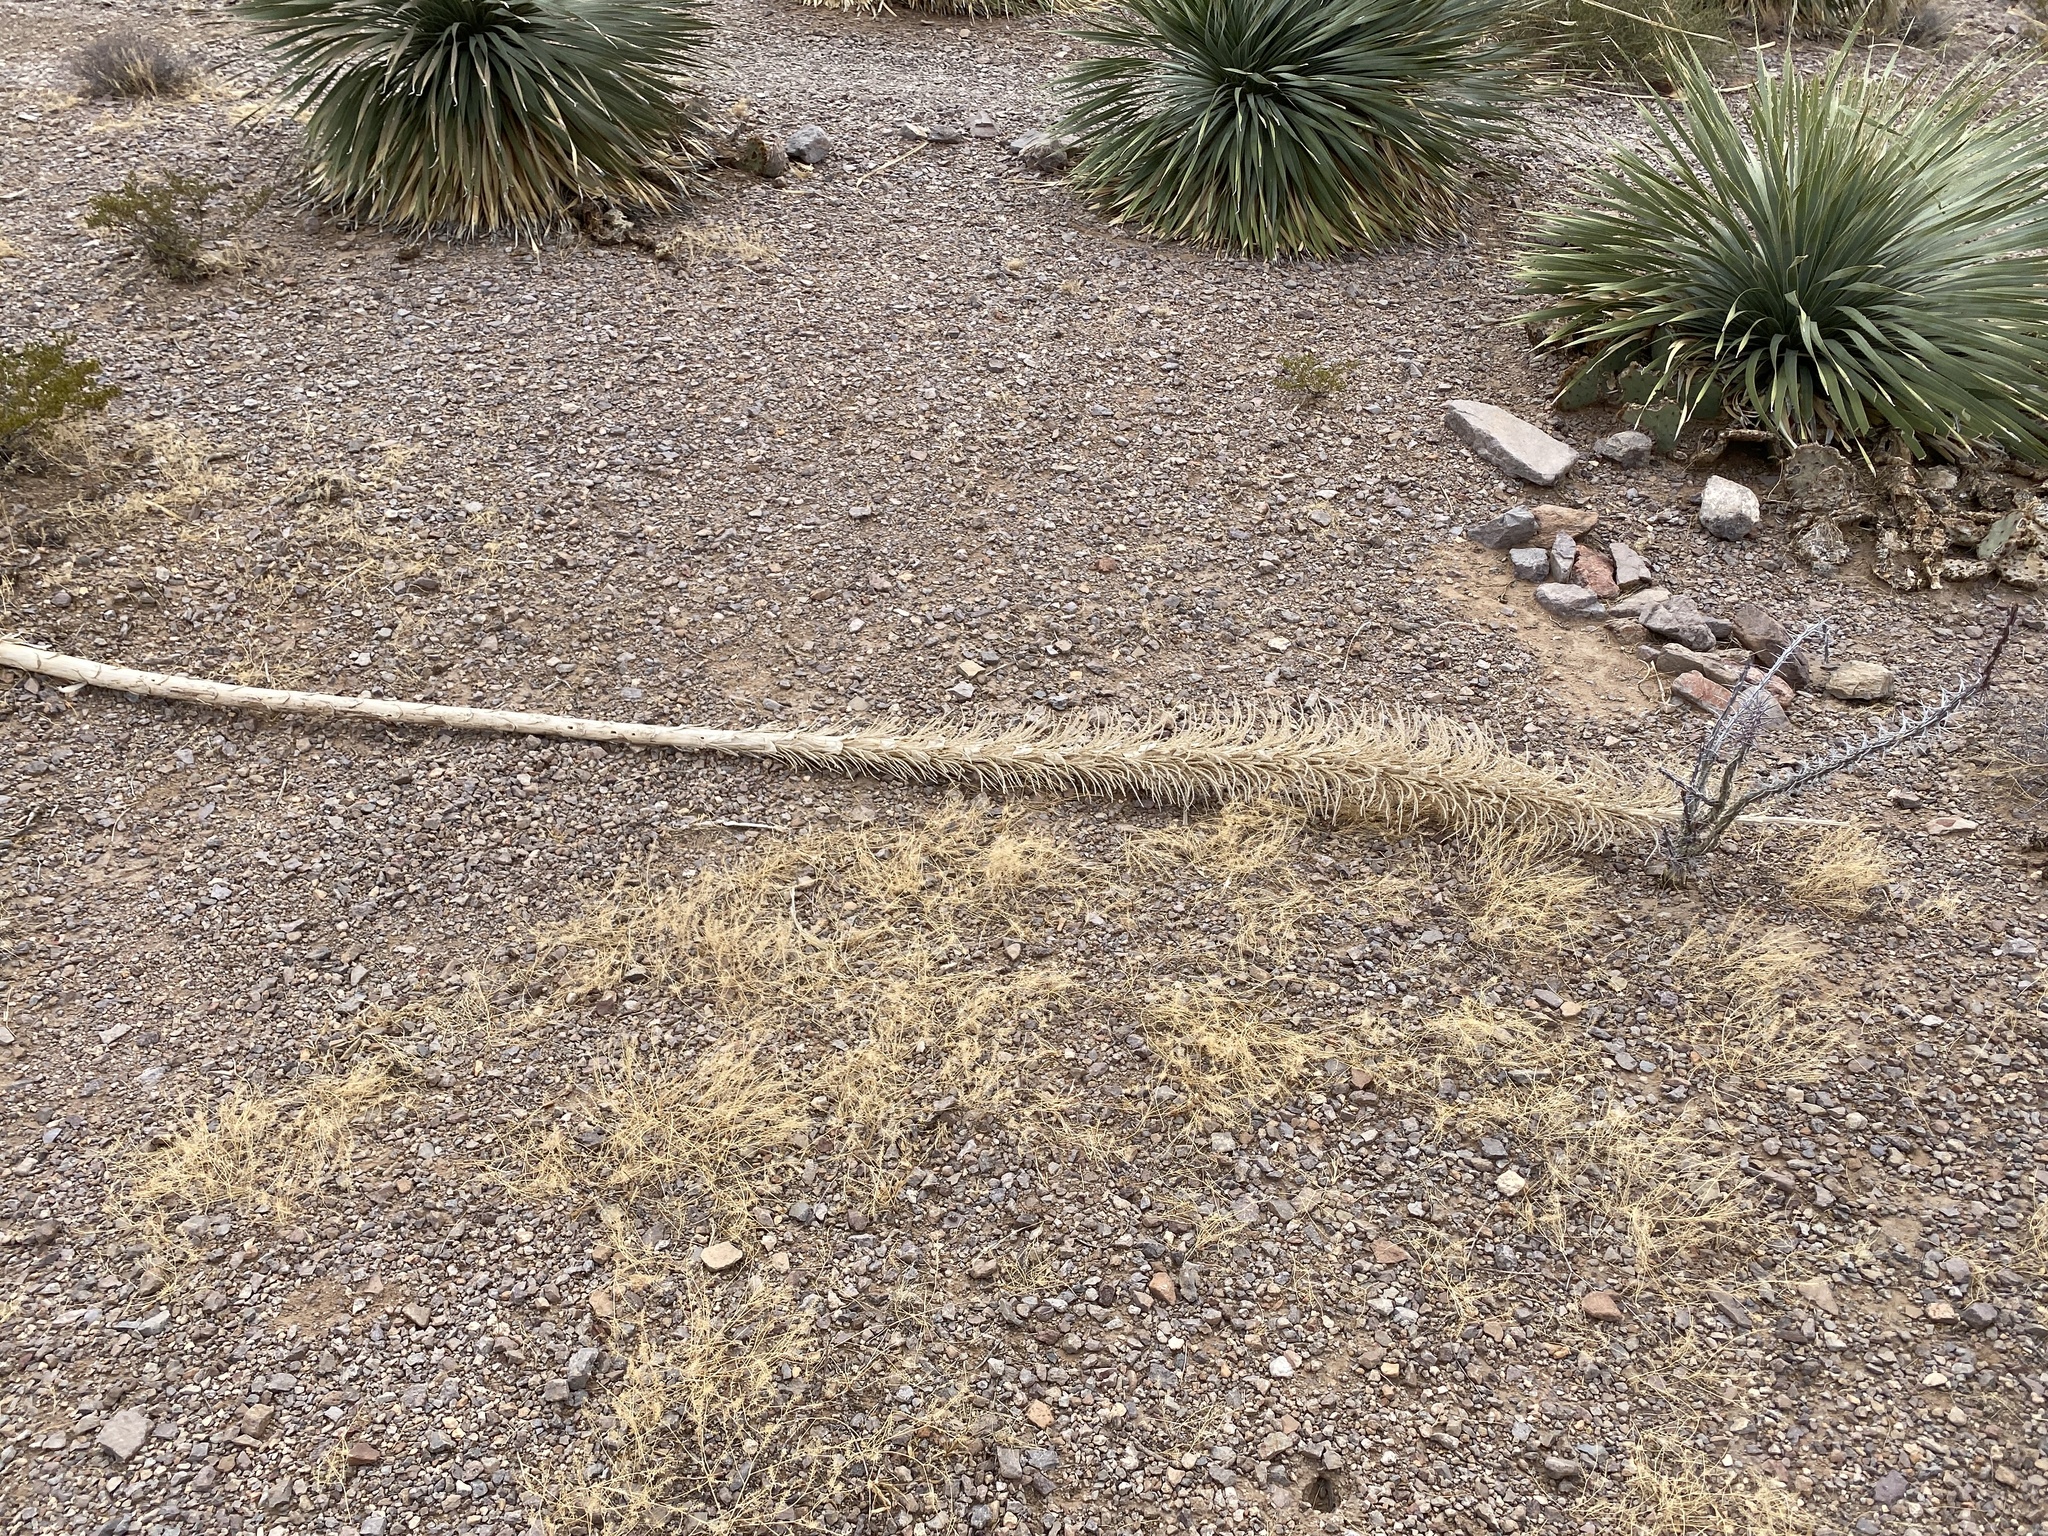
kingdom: Plantae
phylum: Tracheophyta
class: Liliopsida
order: Asparagales
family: Asparagaceae
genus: Dasylirion
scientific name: Dasylirion wheeleri
